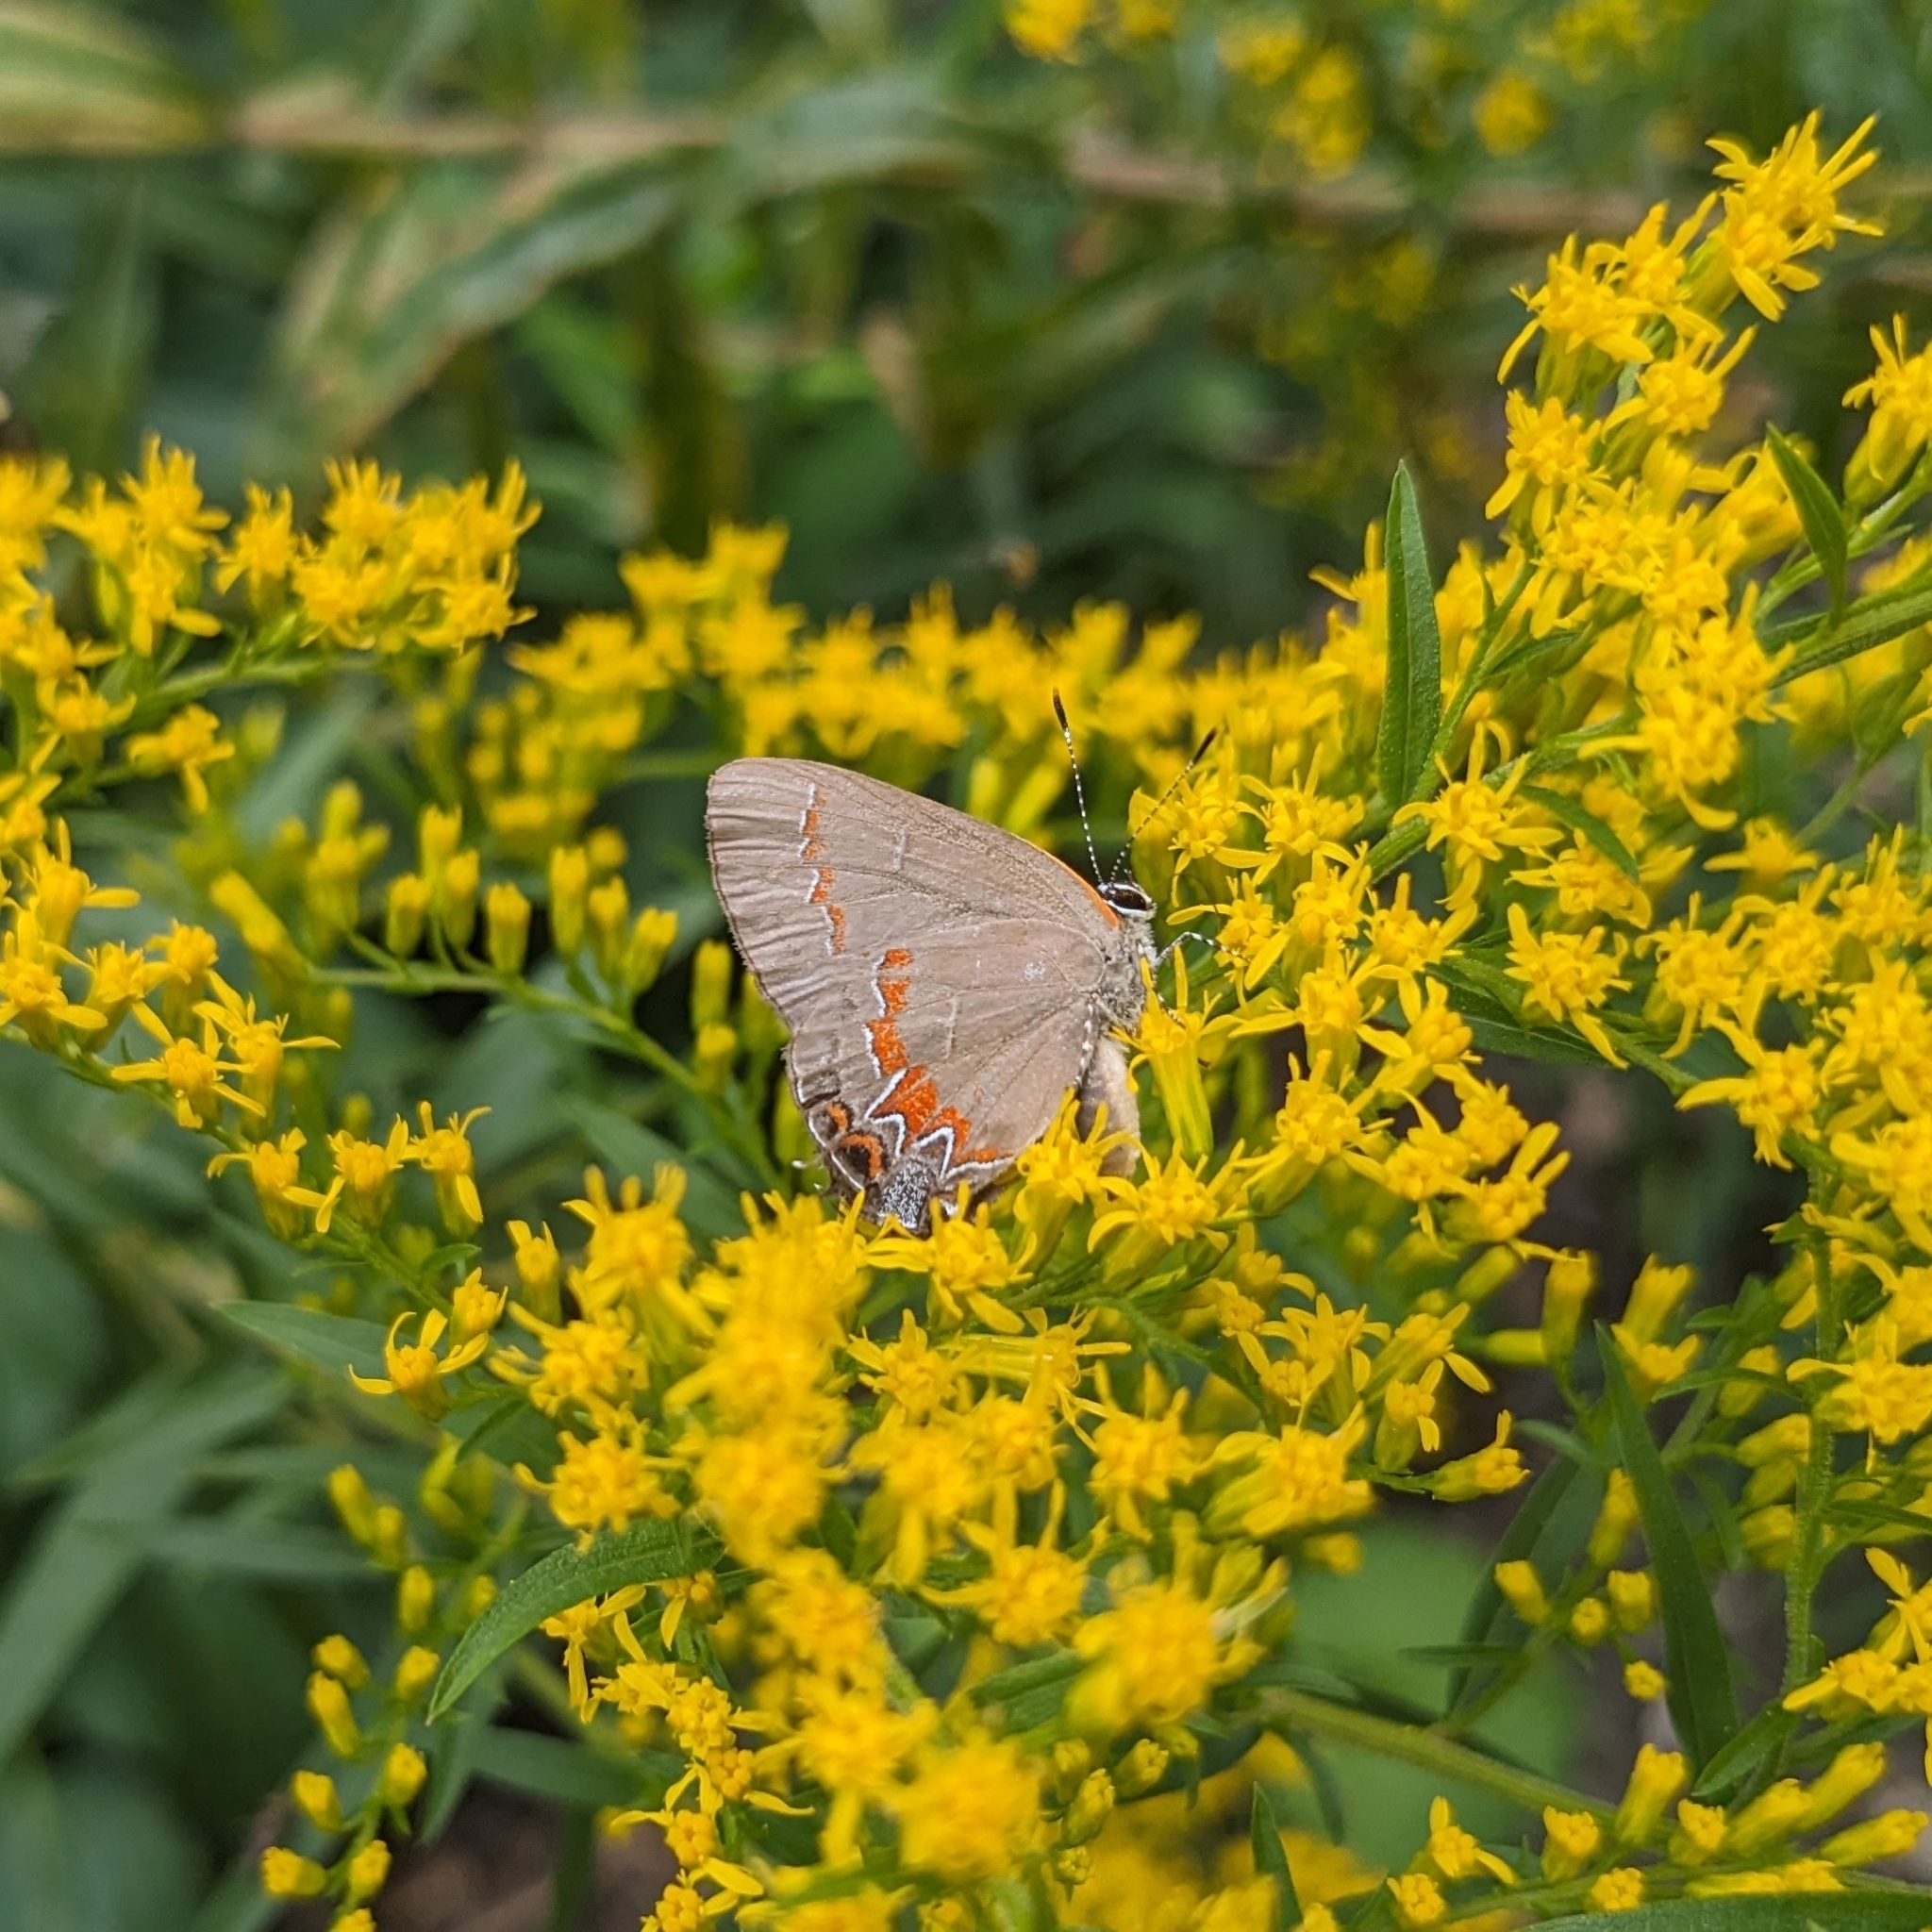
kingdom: Animalia
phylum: Arthropoda
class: Insecta
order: Lepidoptera
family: Lycaenidae
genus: Calycopis
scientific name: Calycopis cecrops
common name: Red-banded hairstreak
